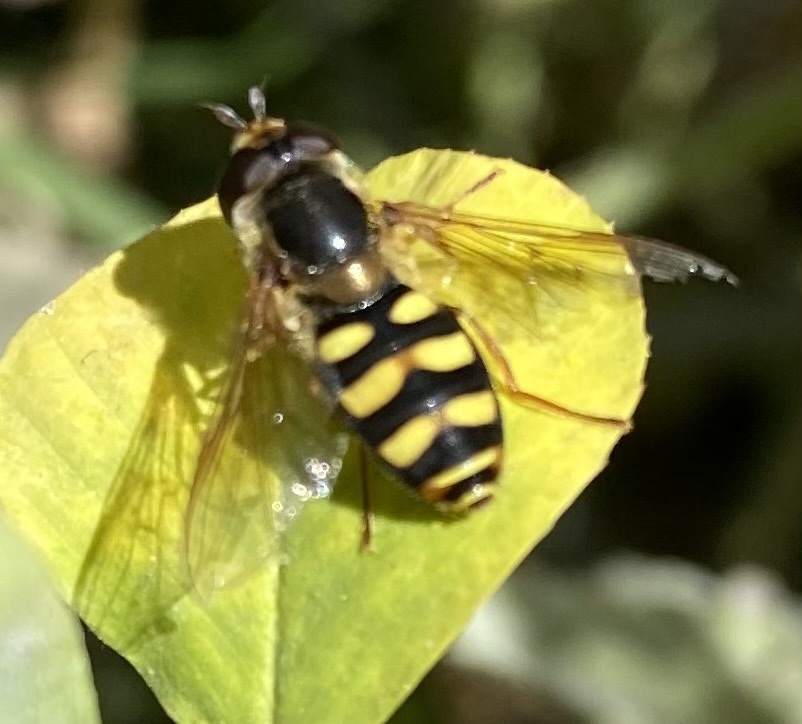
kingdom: Animalia
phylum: Arthropoda
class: Insecta
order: Diptera
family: Syrphidae
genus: Eupeodes
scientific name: Eupeodes fumipennis
